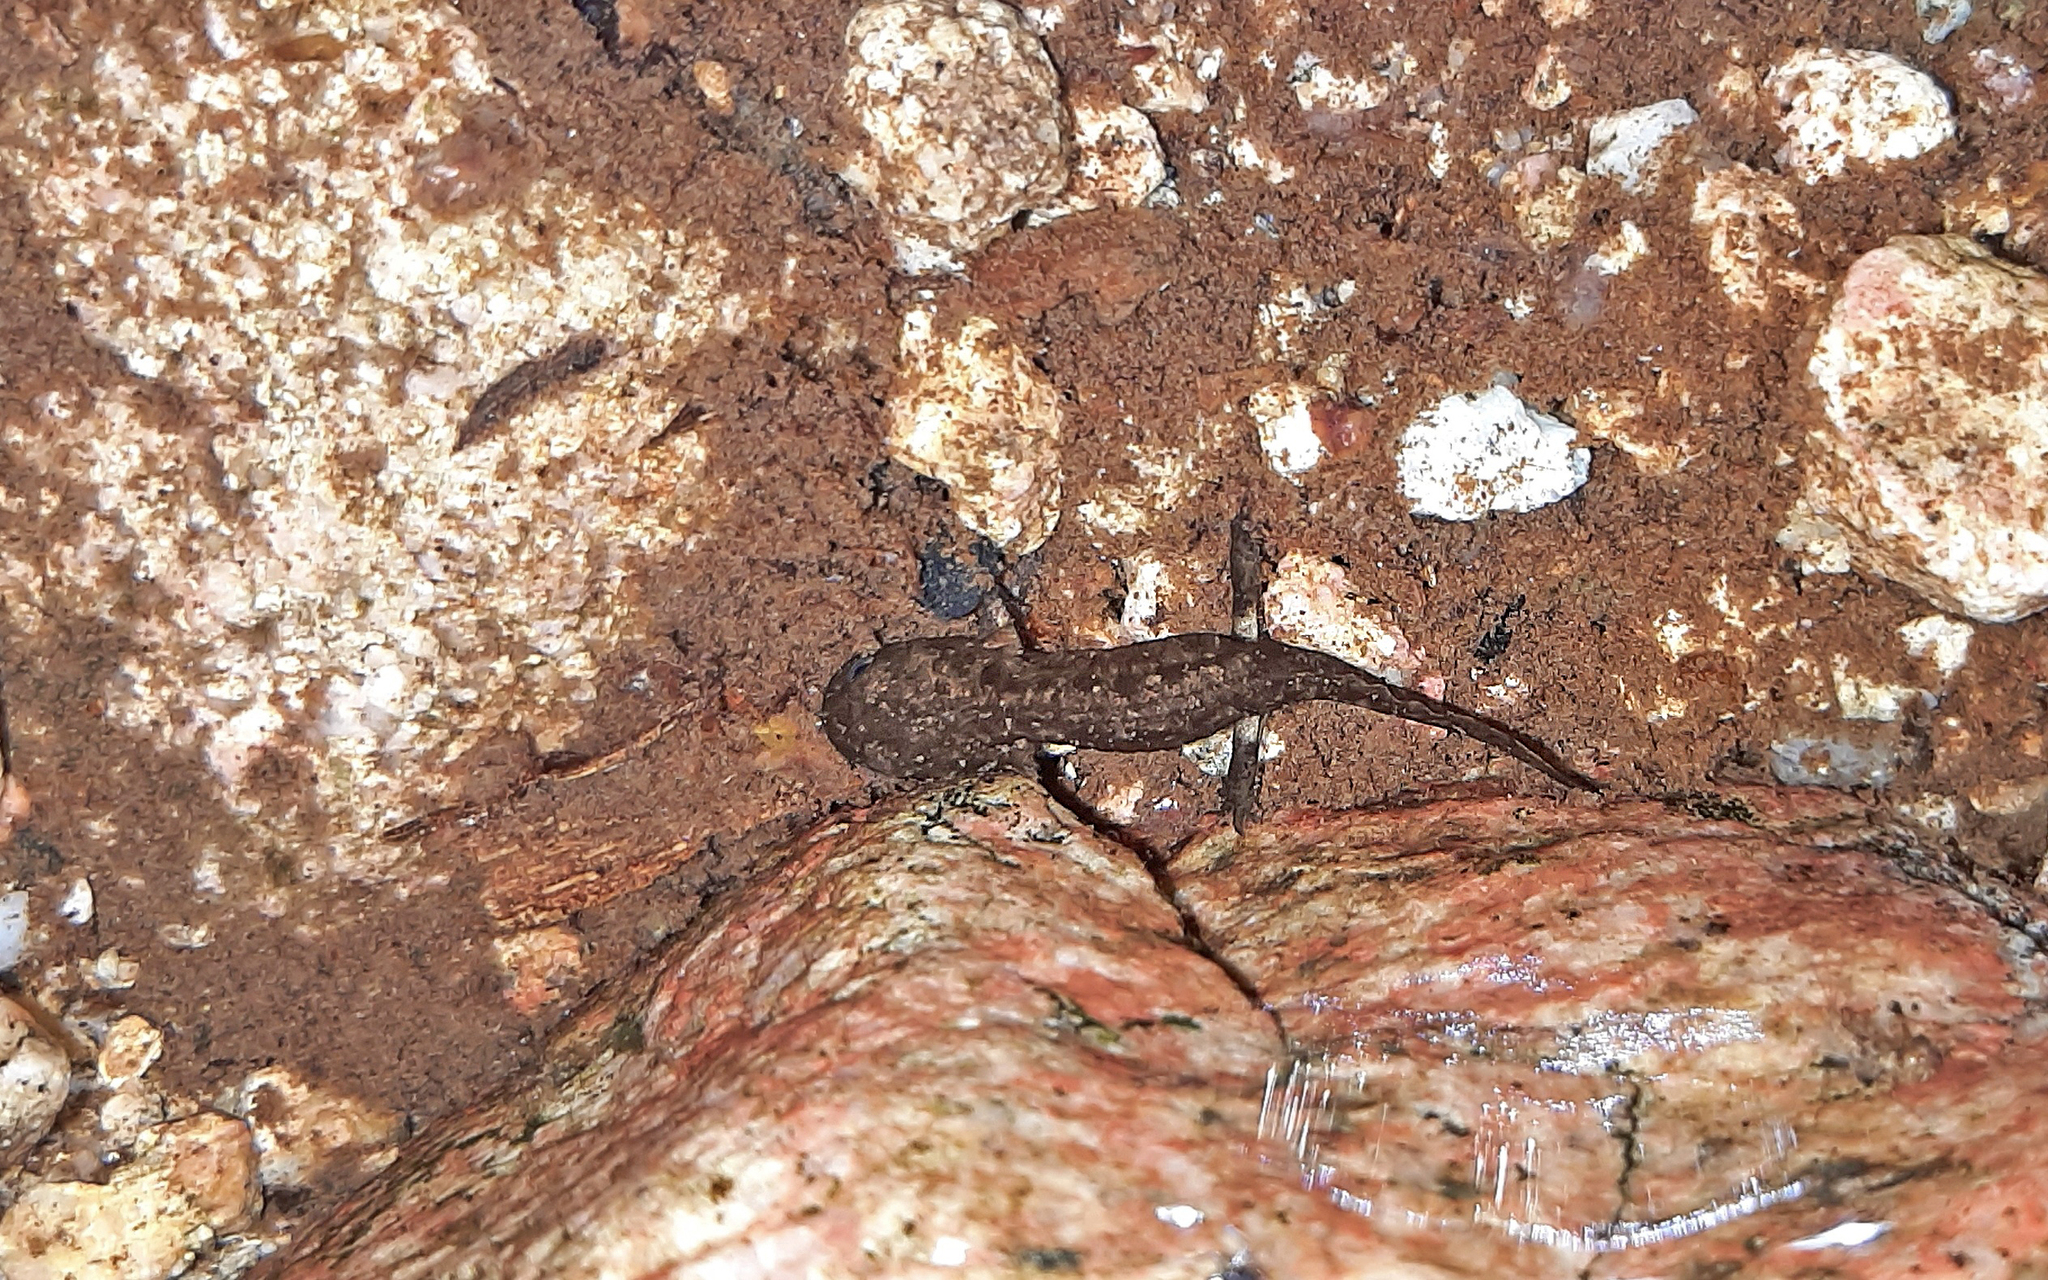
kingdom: Animalia
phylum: Chordata
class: Amphibia
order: Caudata
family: Salamandridae
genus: Salamandra
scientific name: Salamandra corsica
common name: Corsican fire salamander
